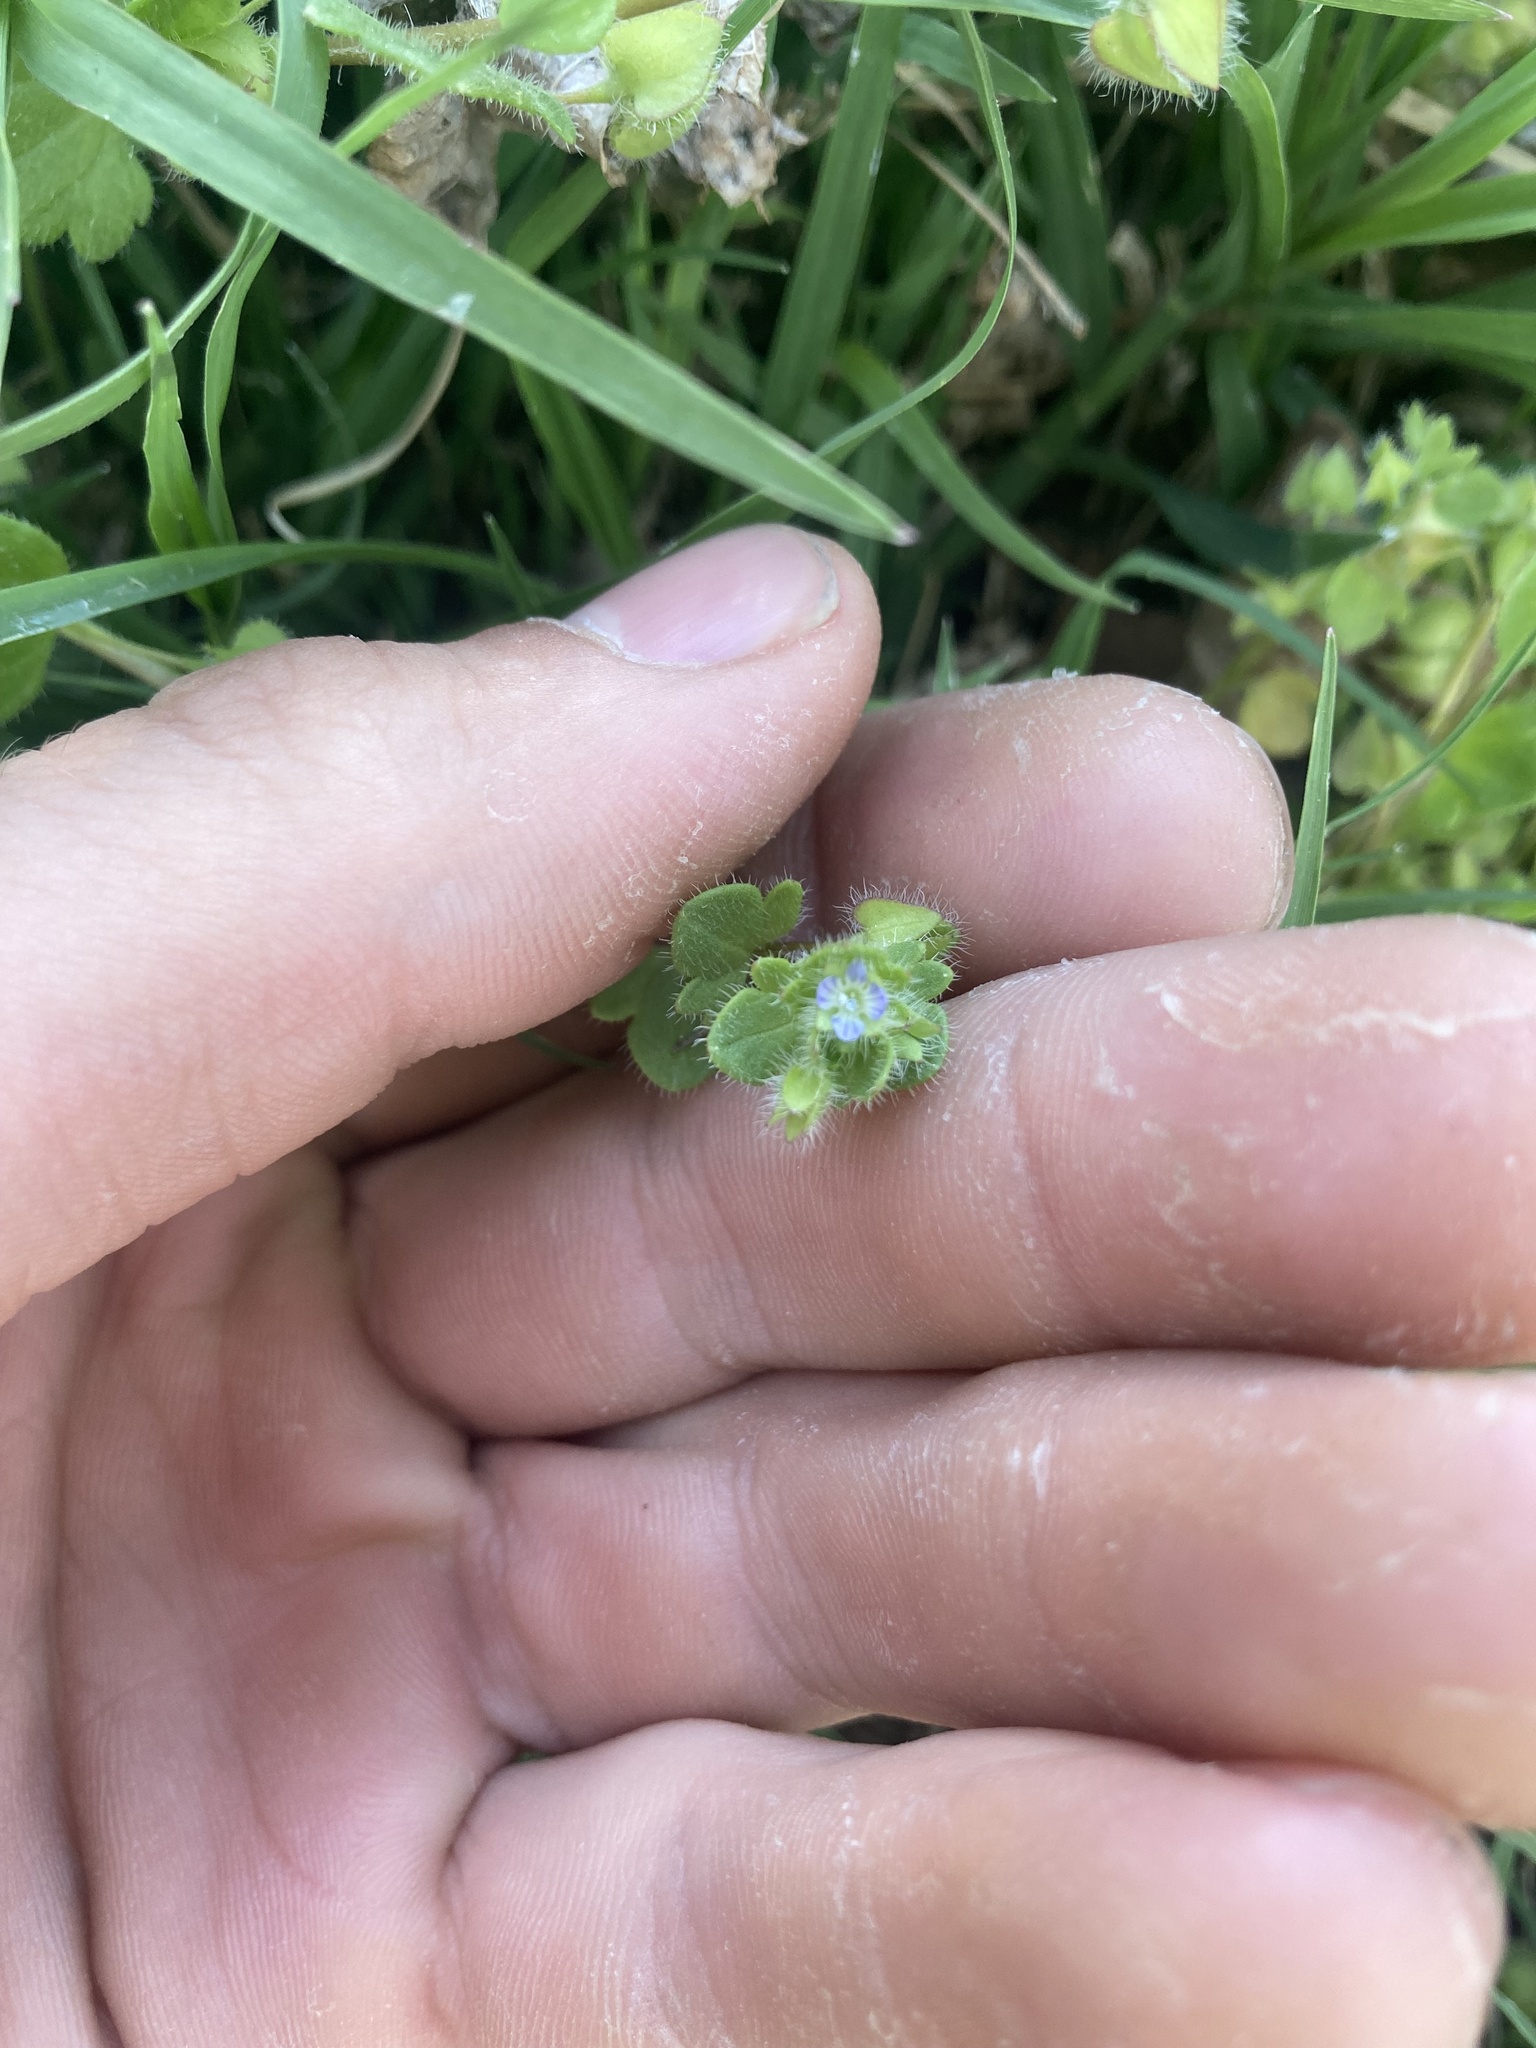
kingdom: Plantae
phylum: Tracheophyta
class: Magnoliopsida
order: Lamiales
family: Plantaginaceae
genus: Veronica
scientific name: Veronica hederifolia
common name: Ivy-leaved speedwell
